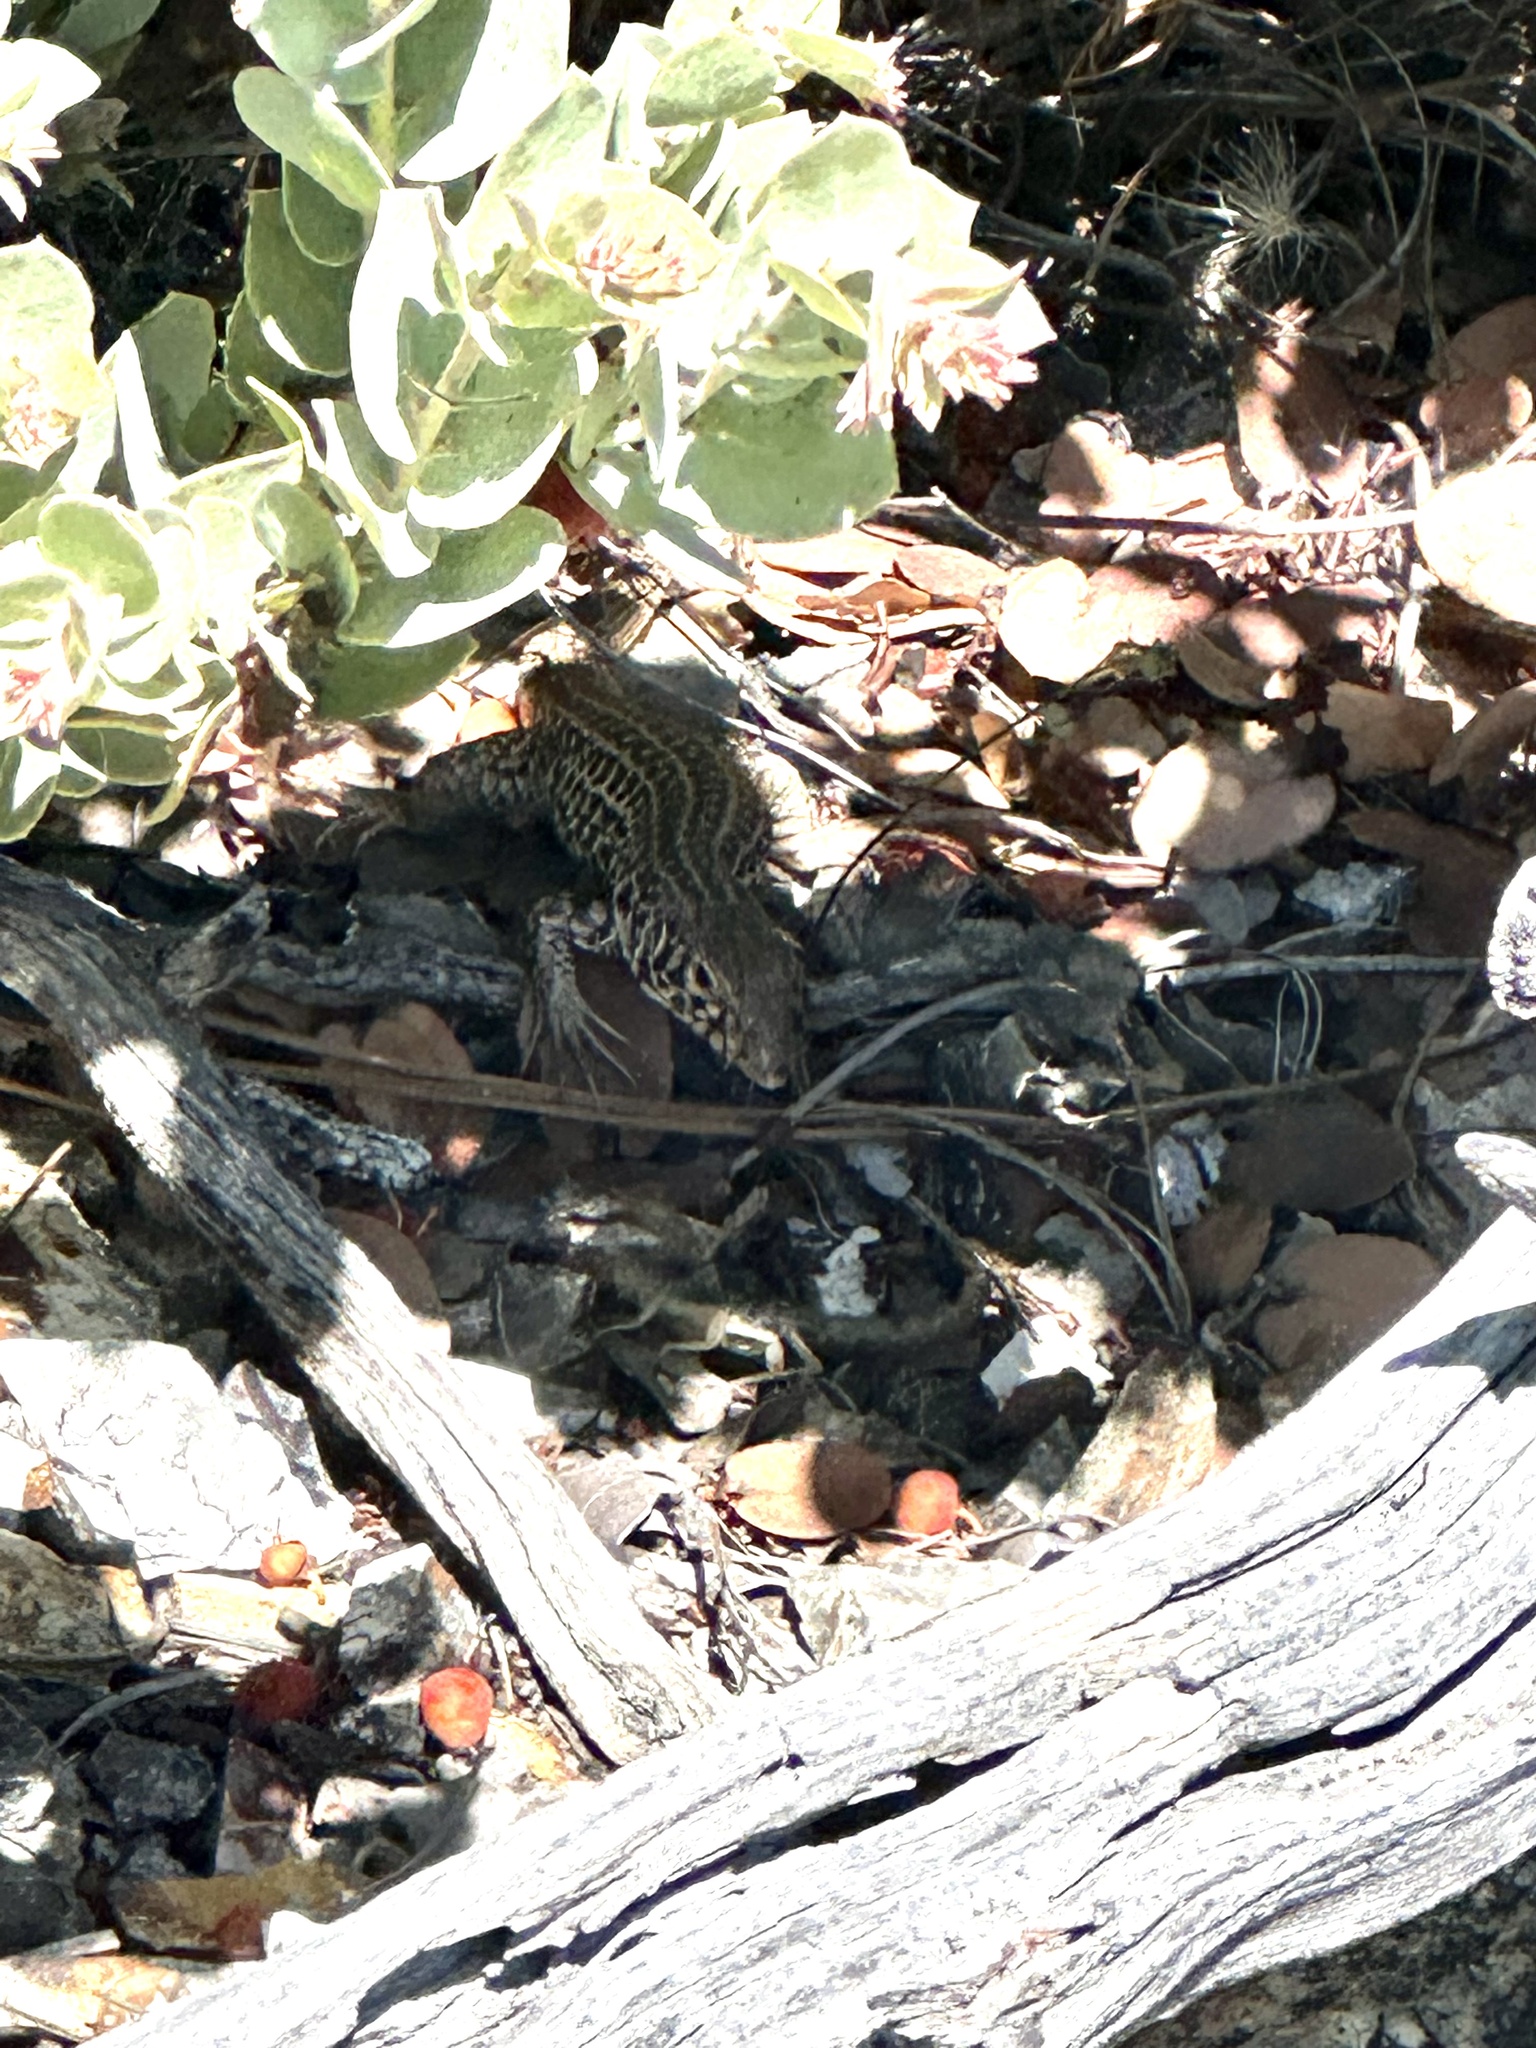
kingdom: Animalia
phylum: Chordata
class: Squamata
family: Teiidae
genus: Aspidoscelis
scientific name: Aspidoscelis tigris
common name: Tiger whiptail
